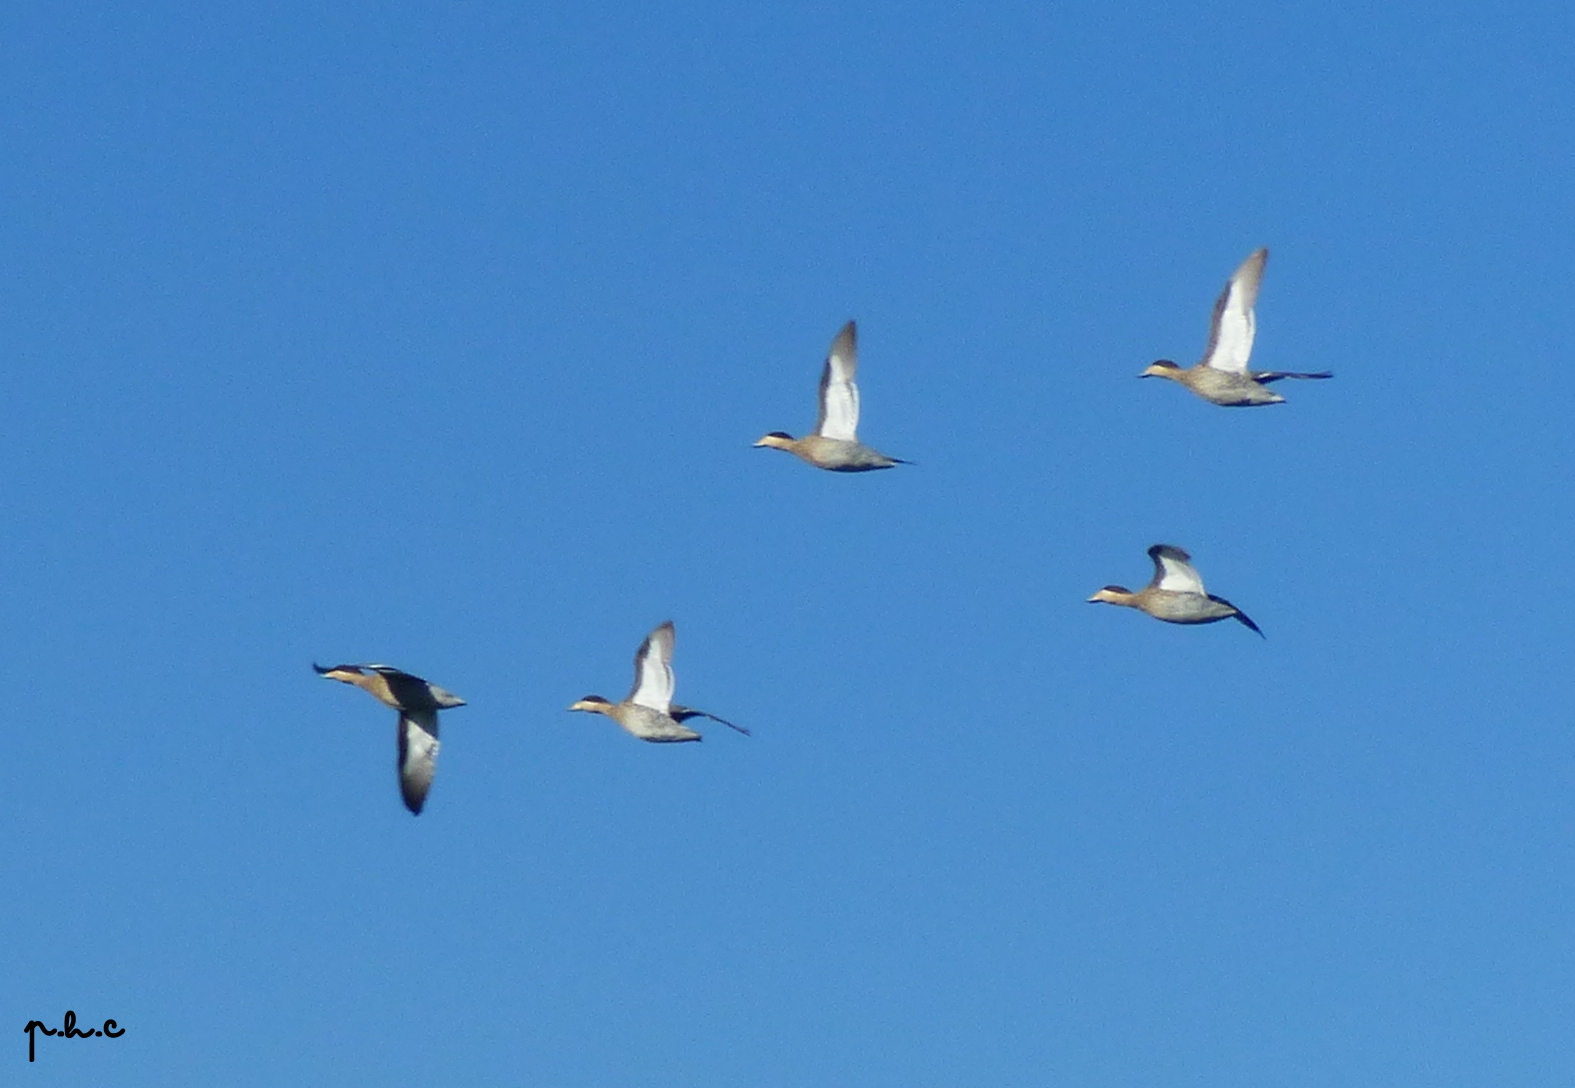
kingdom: Animalia
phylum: Chordata
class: Aves
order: Anseriformes
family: Anatidae
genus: Spatula
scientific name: Spatula versicolor
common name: Silver teal
